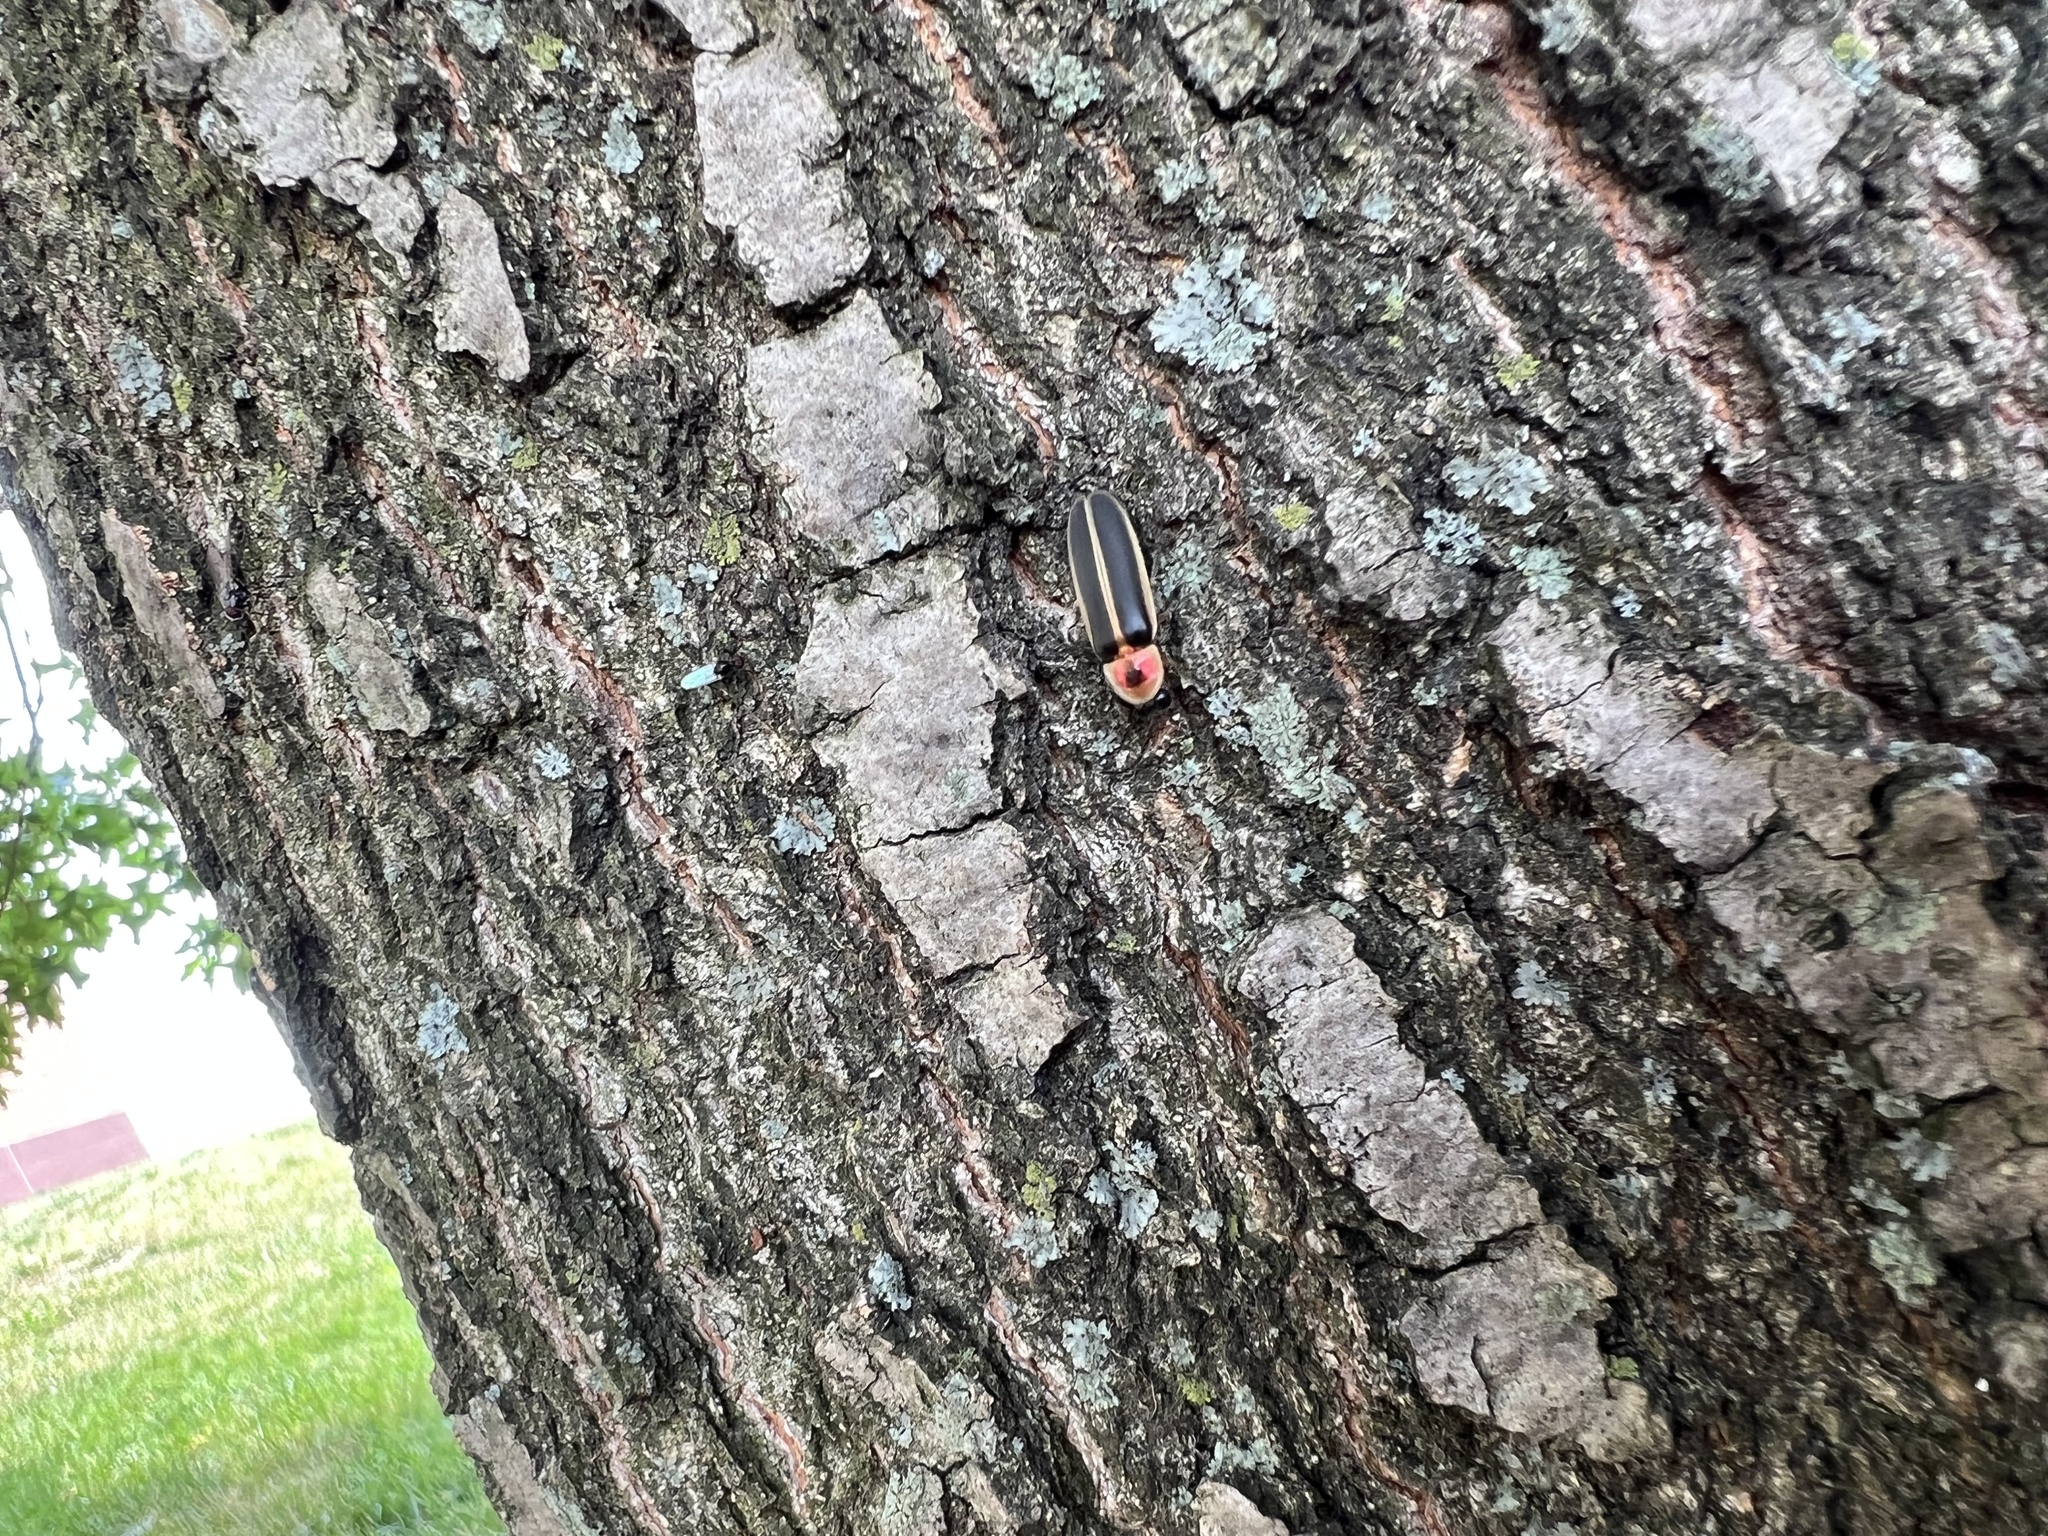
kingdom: Animalia
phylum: Arthropoda
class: Insecta
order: Coleoptera
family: Lampyridae
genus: Photinus
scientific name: Photinus pyralis
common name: Big dipper firefly
